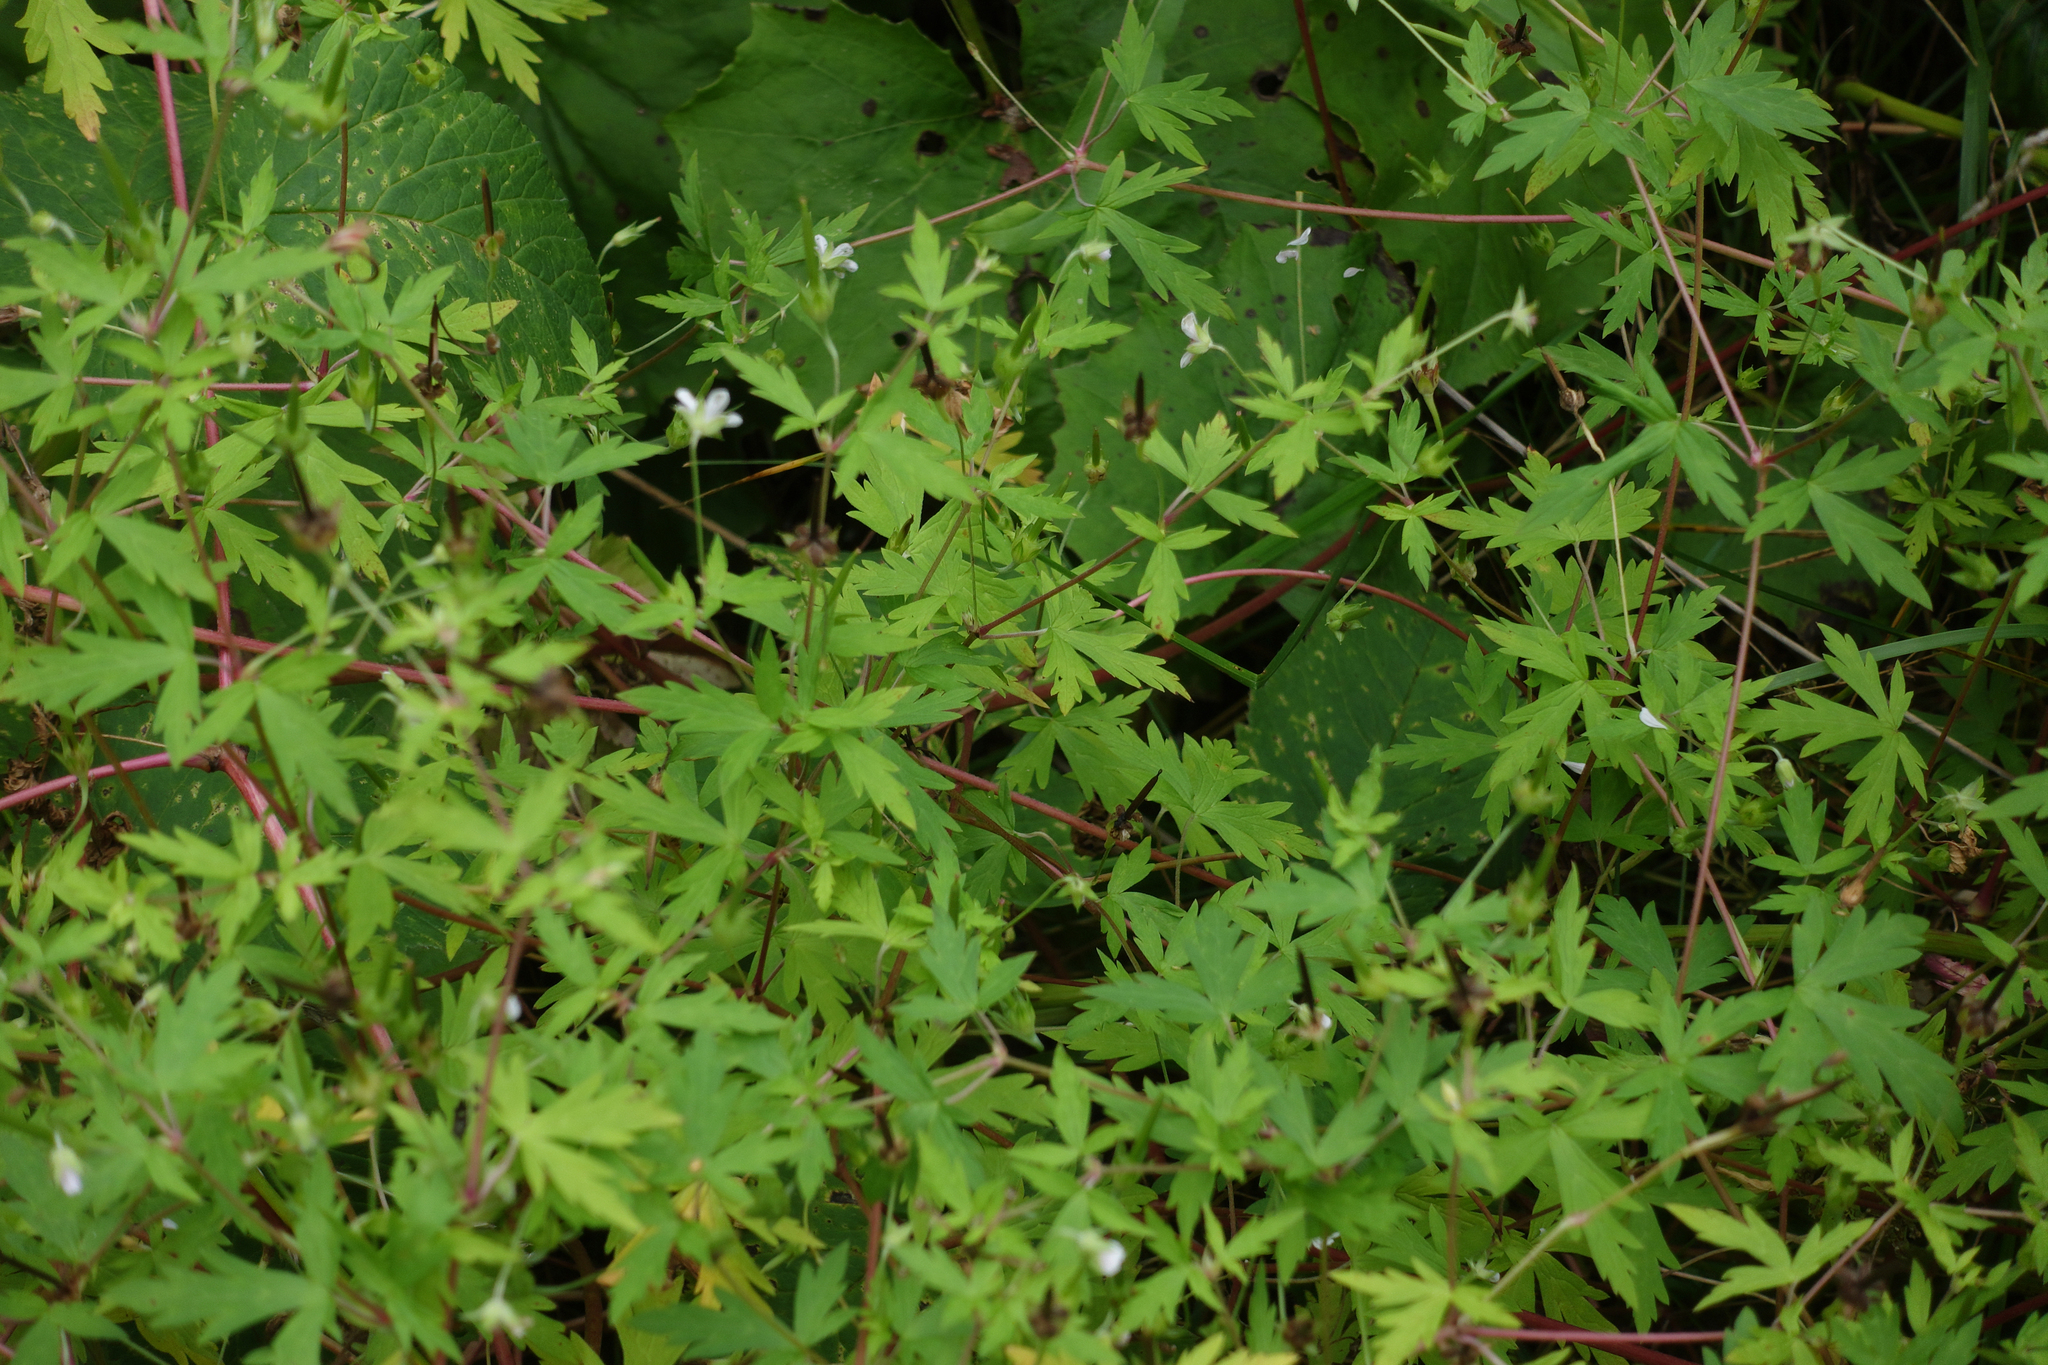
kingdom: Plantae
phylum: Tracheophyta
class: Magnoliopsida
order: Geraniales
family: Geraniaceae
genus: Geranium
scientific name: Geranium sibiricum
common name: Siberian crane's-bill
